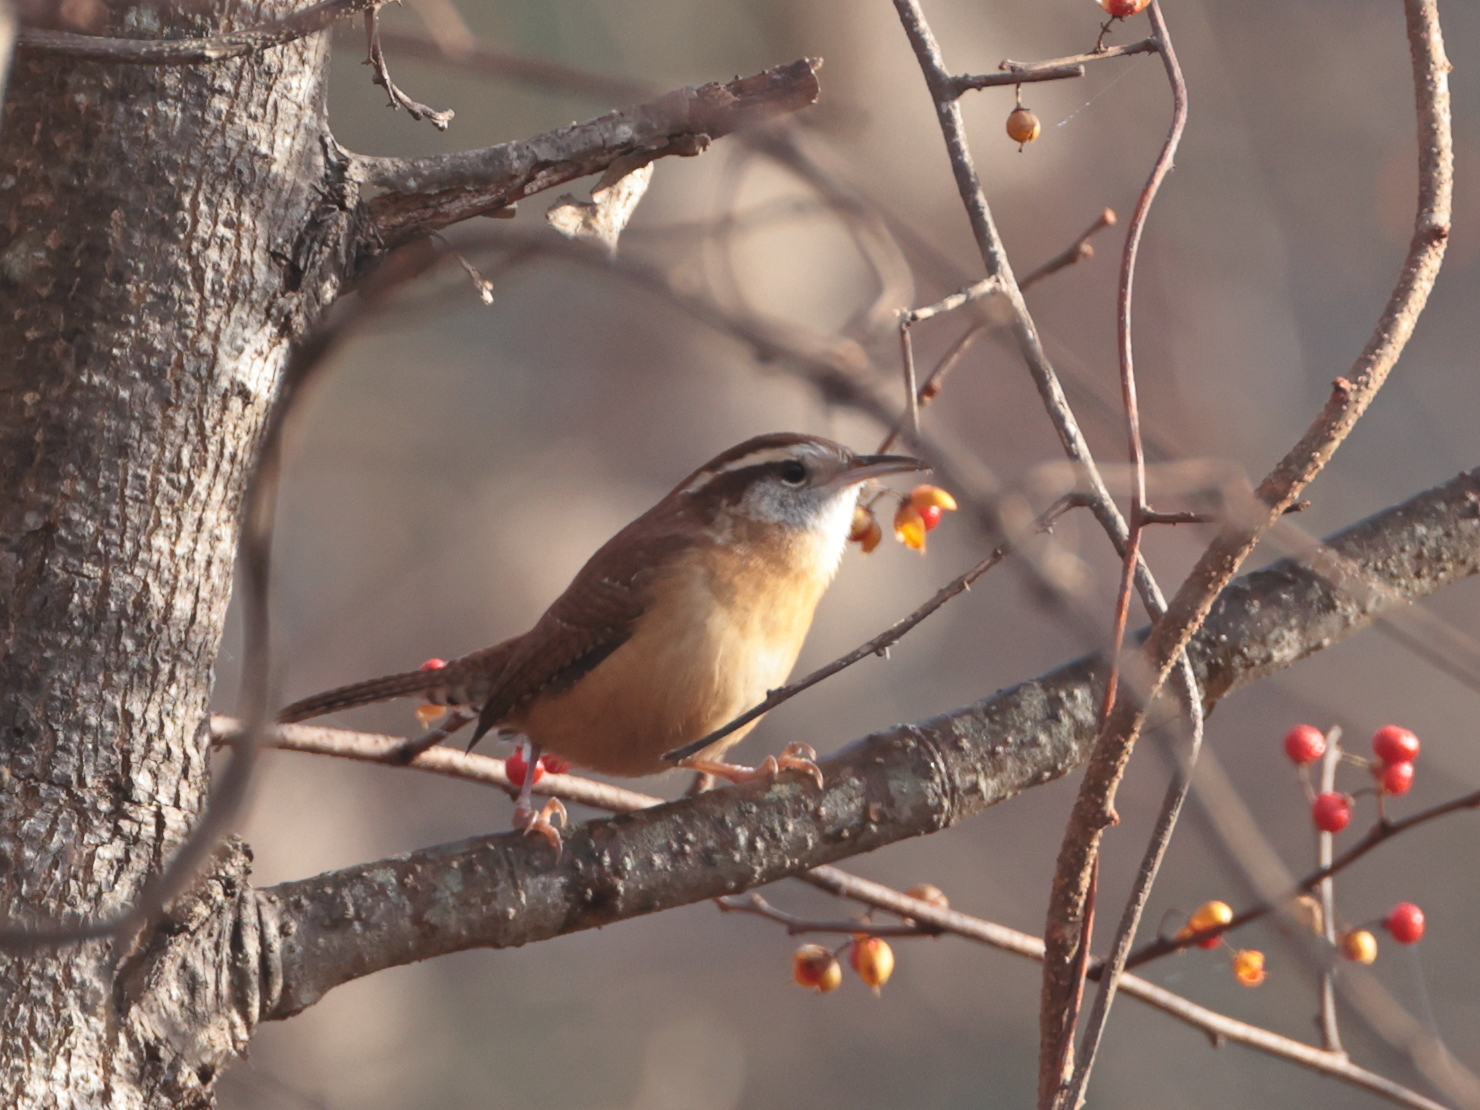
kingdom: Animalia
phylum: Chordata
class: Aves
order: Passeriformes
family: Troglodytidae
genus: Thryothorus
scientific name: Thryothorus ludovicianus
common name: Carolina wren
